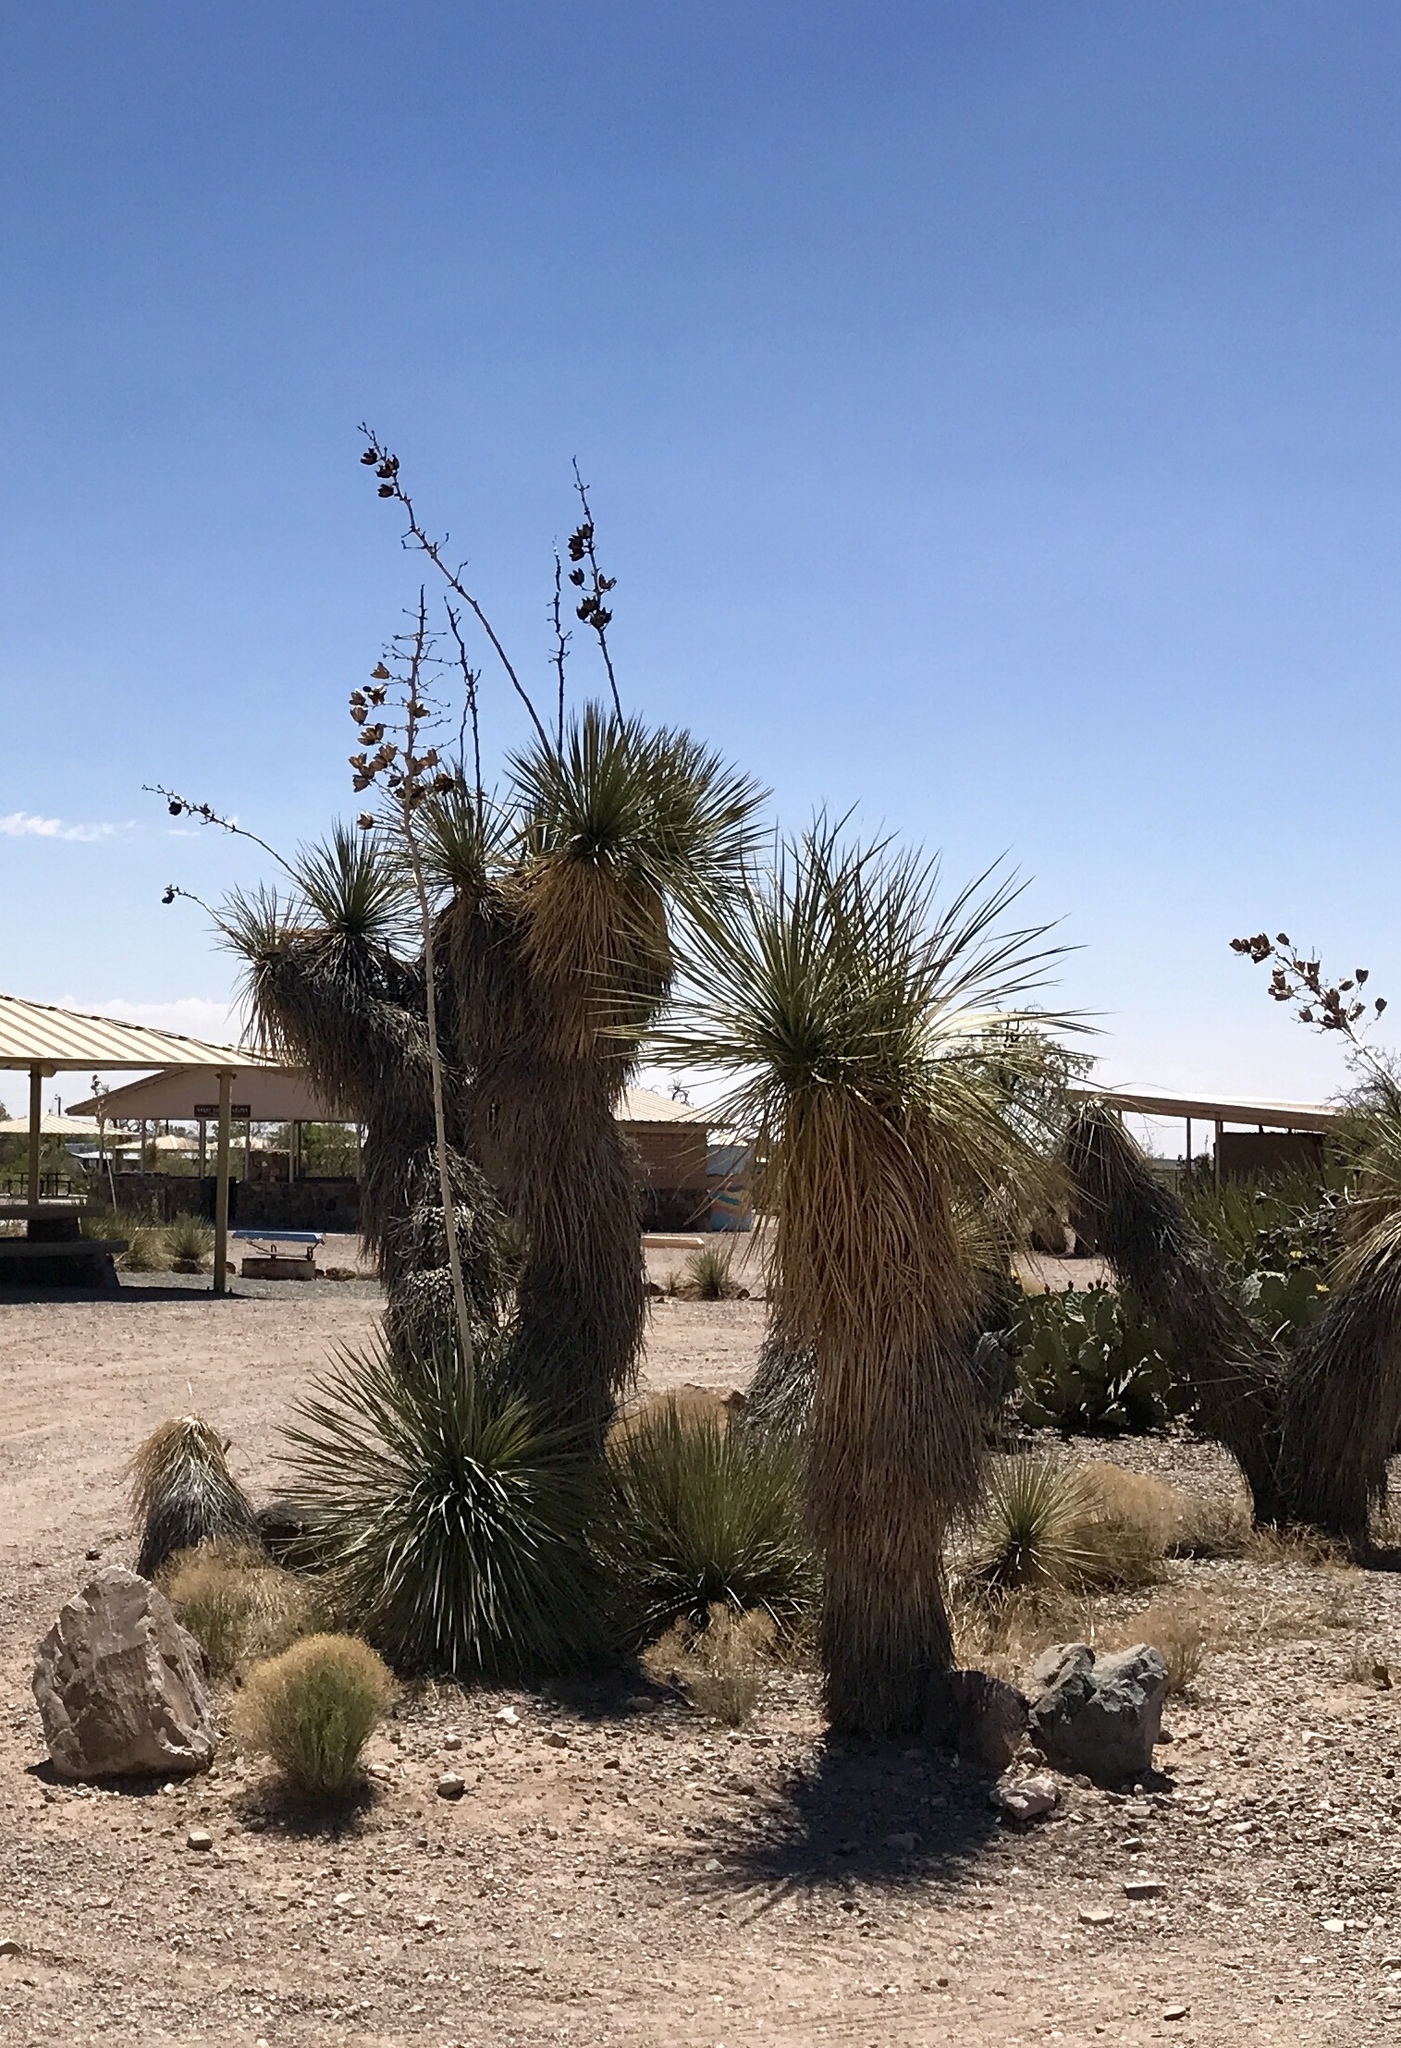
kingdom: Plantae
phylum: Tracheophyta
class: Liliopsida
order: Asparagales
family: Asparagaceae
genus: Yucca
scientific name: Yucca elata
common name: Palmella
